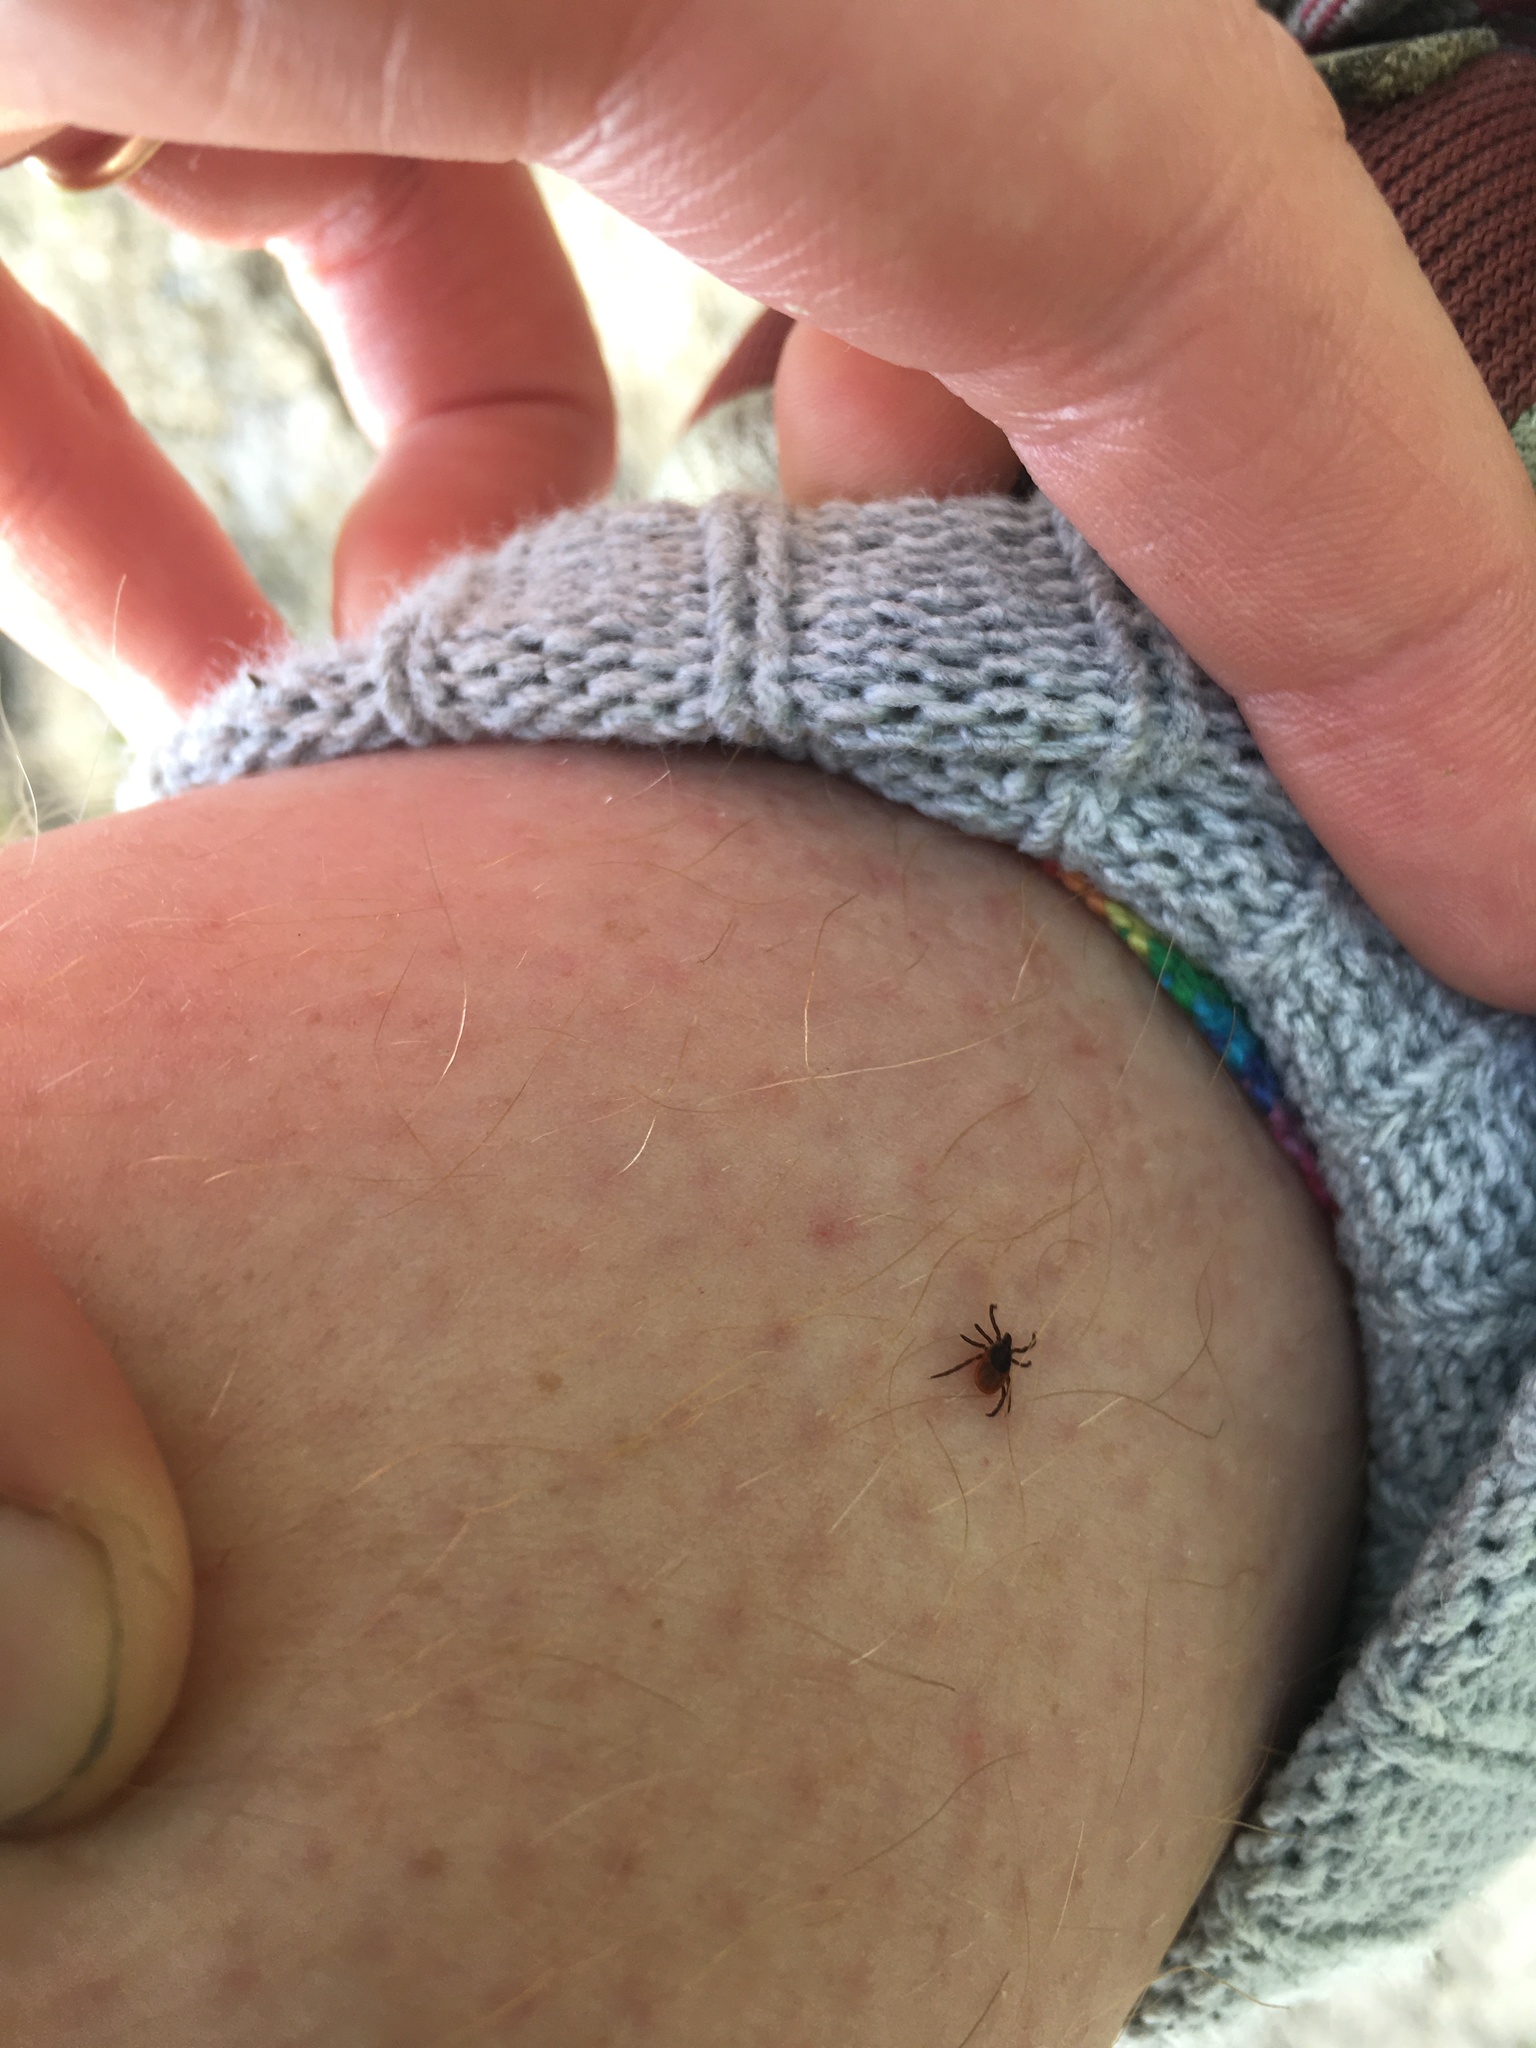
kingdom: Animalia
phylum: Arthropoda
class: Arachnida
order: Ixodida
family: Ixodidae
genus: Ixodes
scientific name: Ixodes scapularis
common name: Black legged tick
